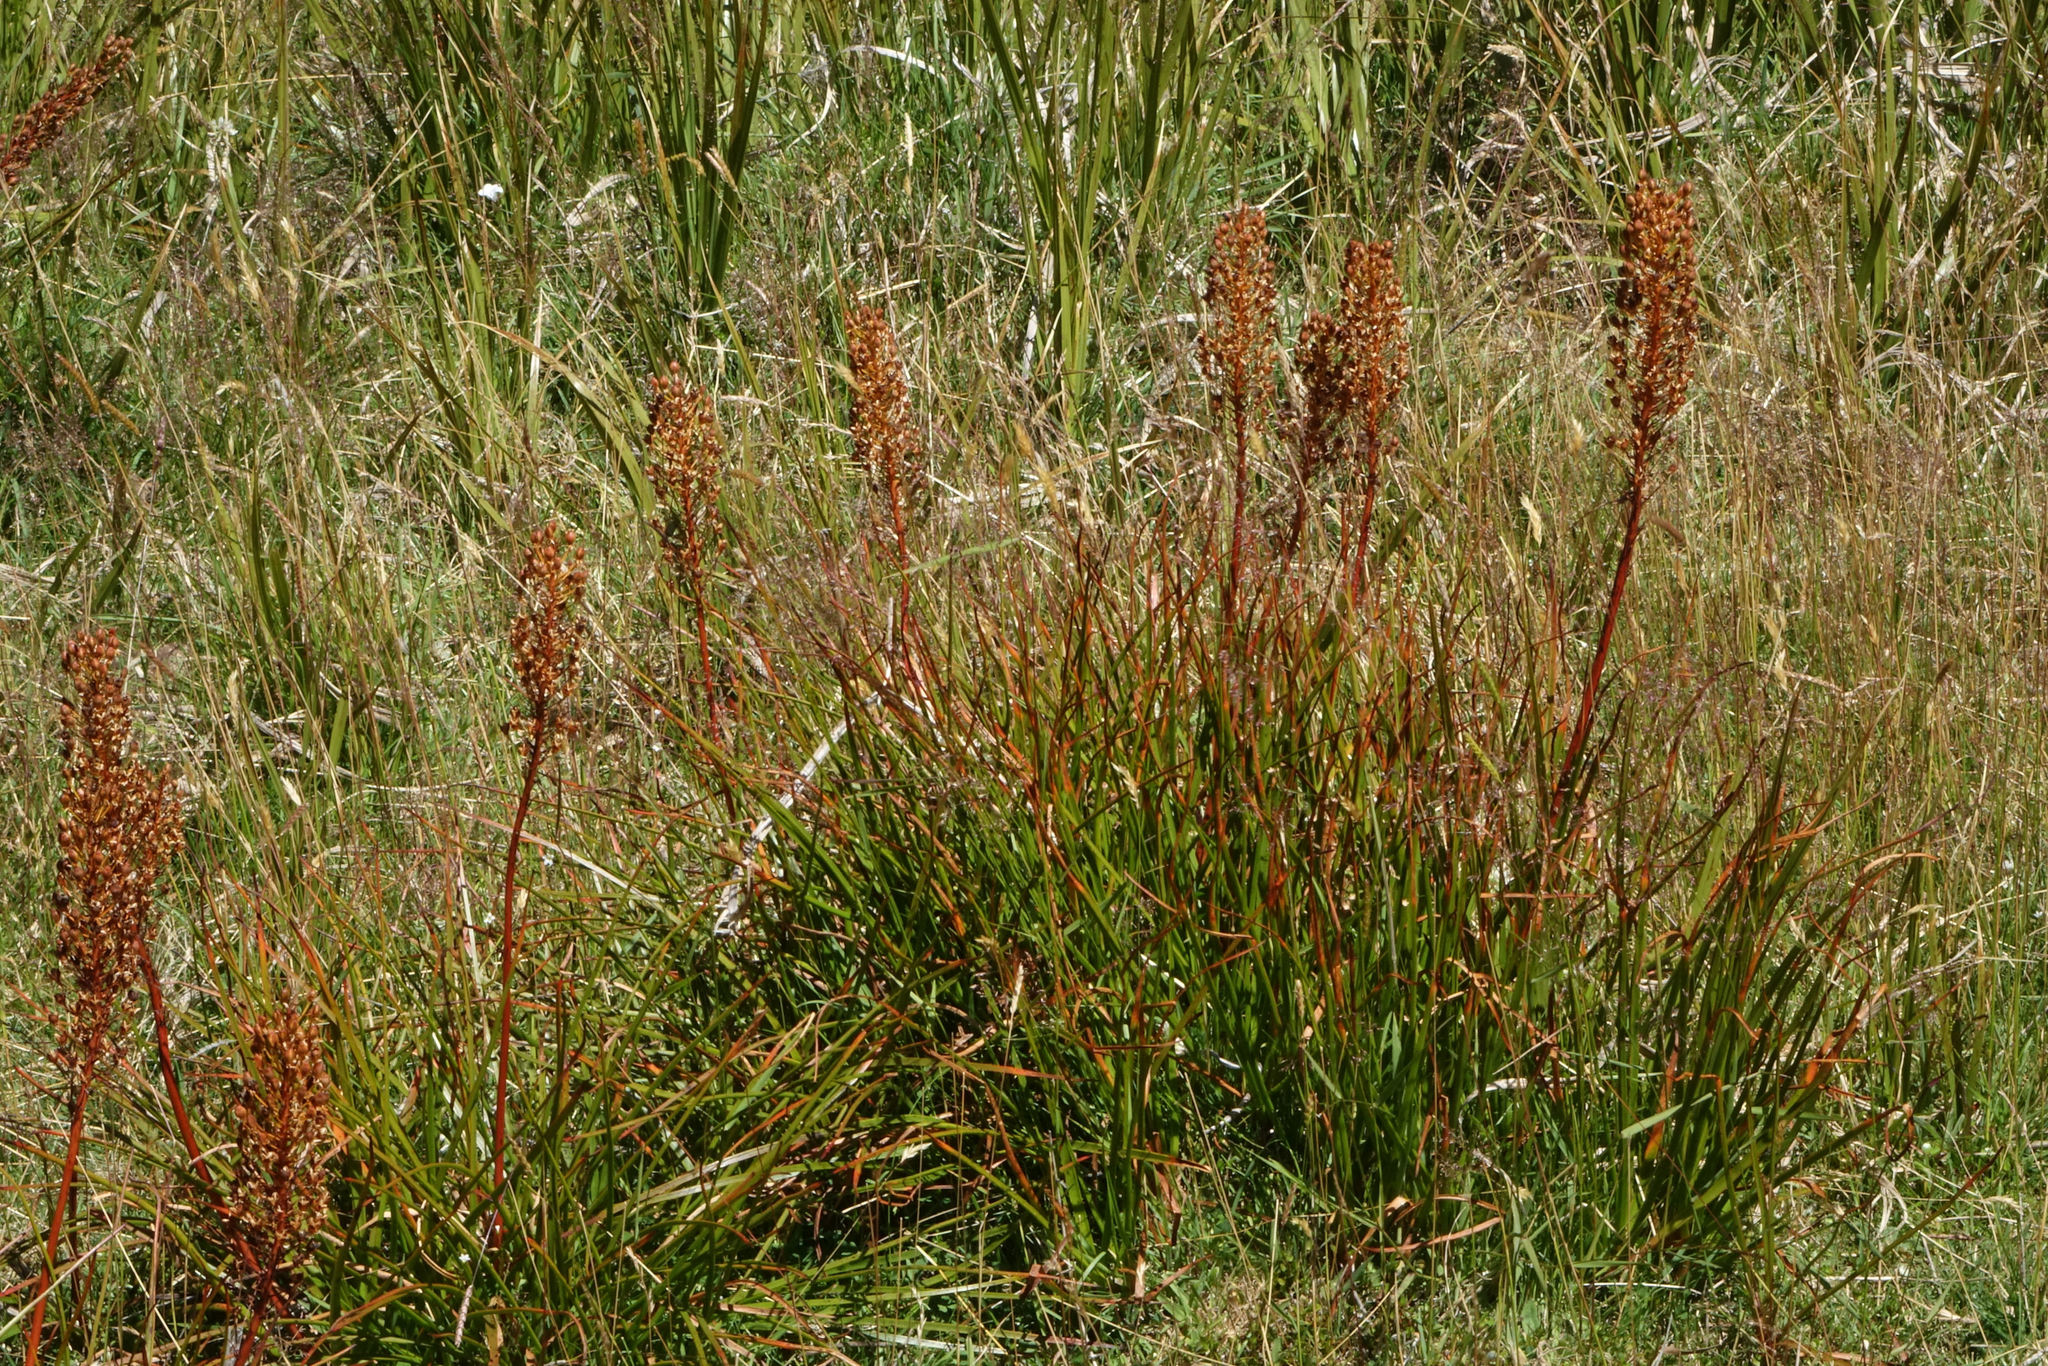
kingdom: Plantae
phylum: Tracheophyta
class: Liliopsida
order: Asparagales
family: Asphodelaceae
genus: Bulbinella
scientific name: Bulbinella angustifolia
